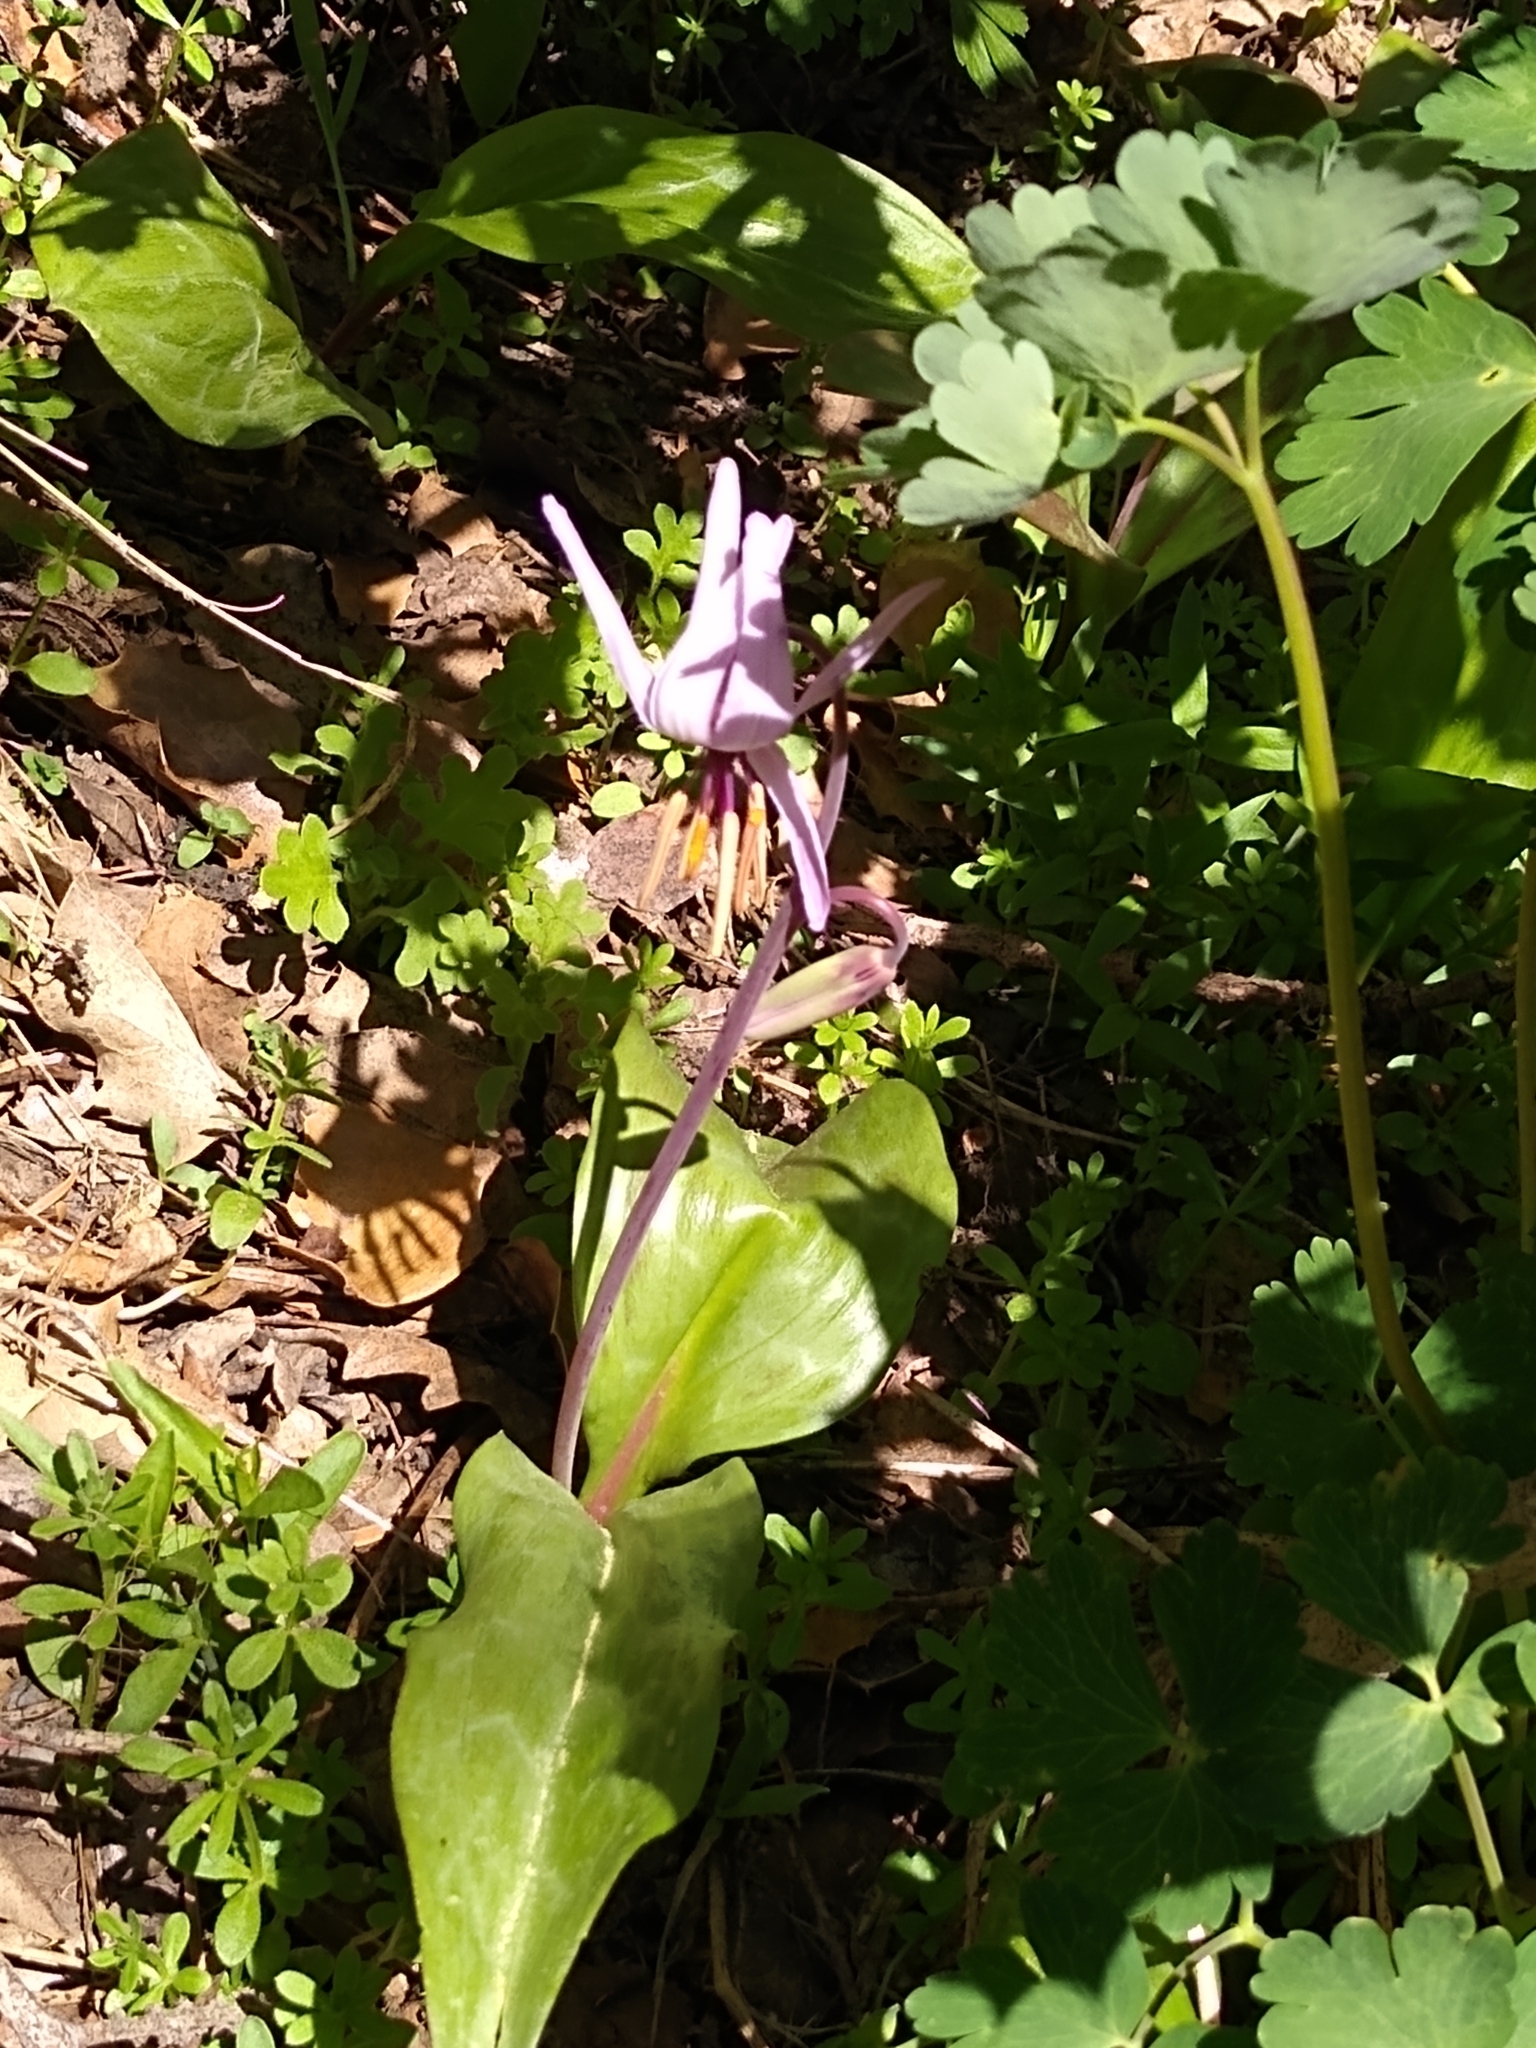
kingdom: Plantae
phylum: Tracheophyta
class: Liliopsida
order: Liliales
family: Liliaceae
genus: Erythronium
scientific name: Erythronium hendersonii
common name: Henderson's fawn-lily
